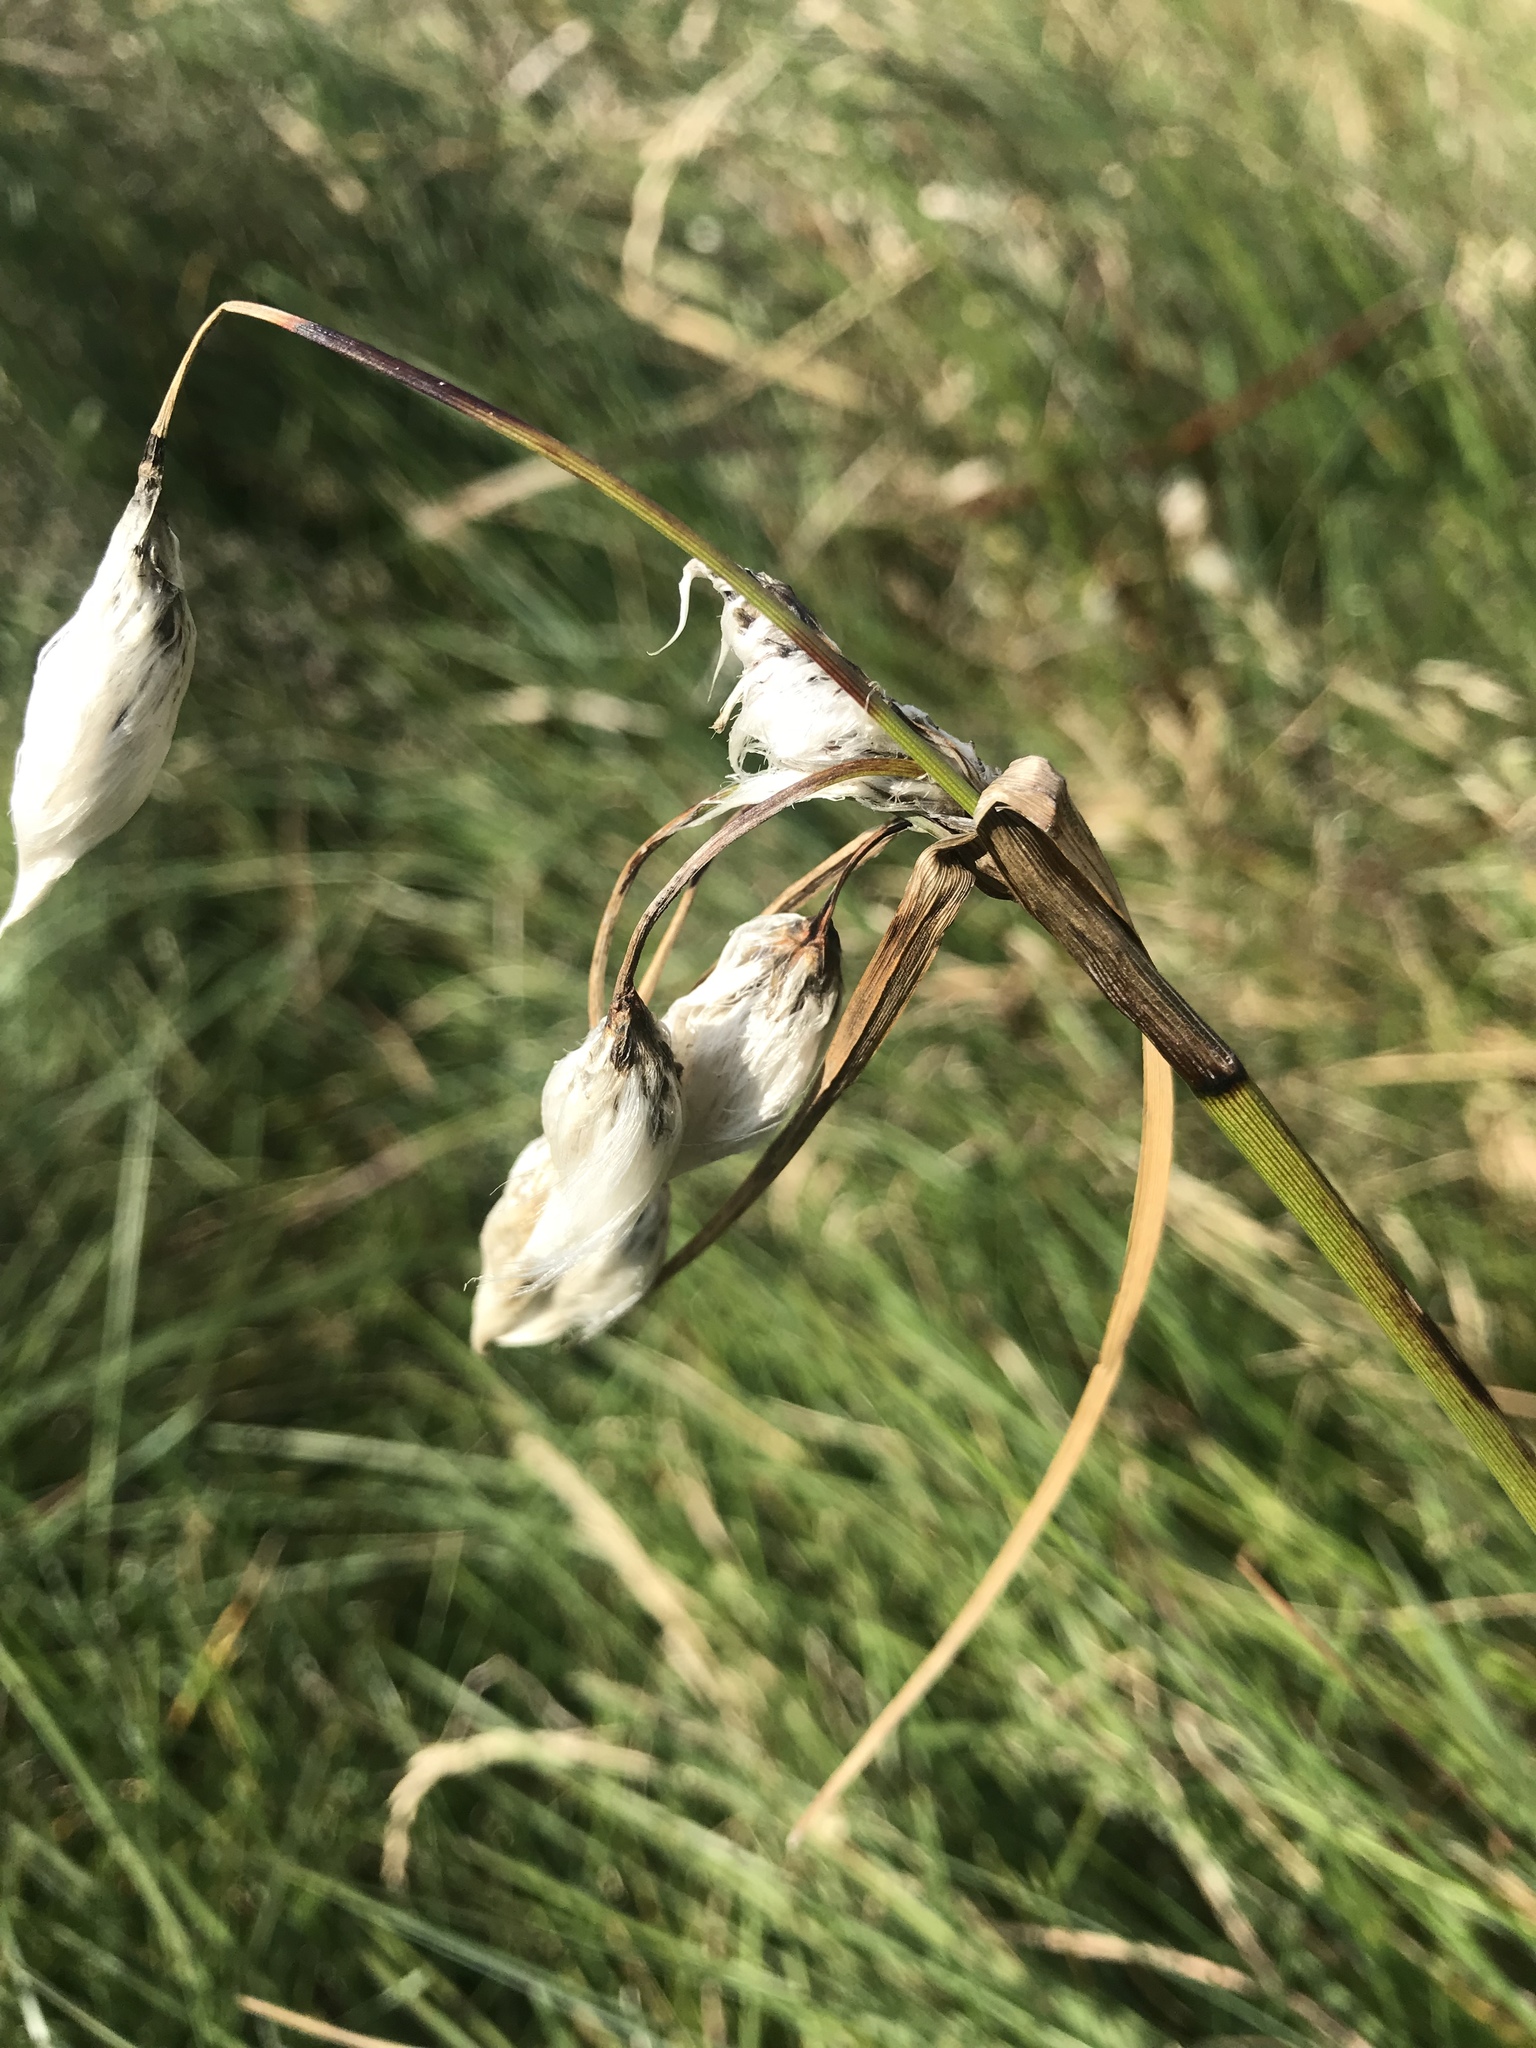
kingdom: Plantae
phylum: Tracheophyta
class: Liliopsida
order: Poales
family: Cyperaceae
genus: Eriophorum
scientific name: Eriophorum angustifolium
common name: Common cottongrass
